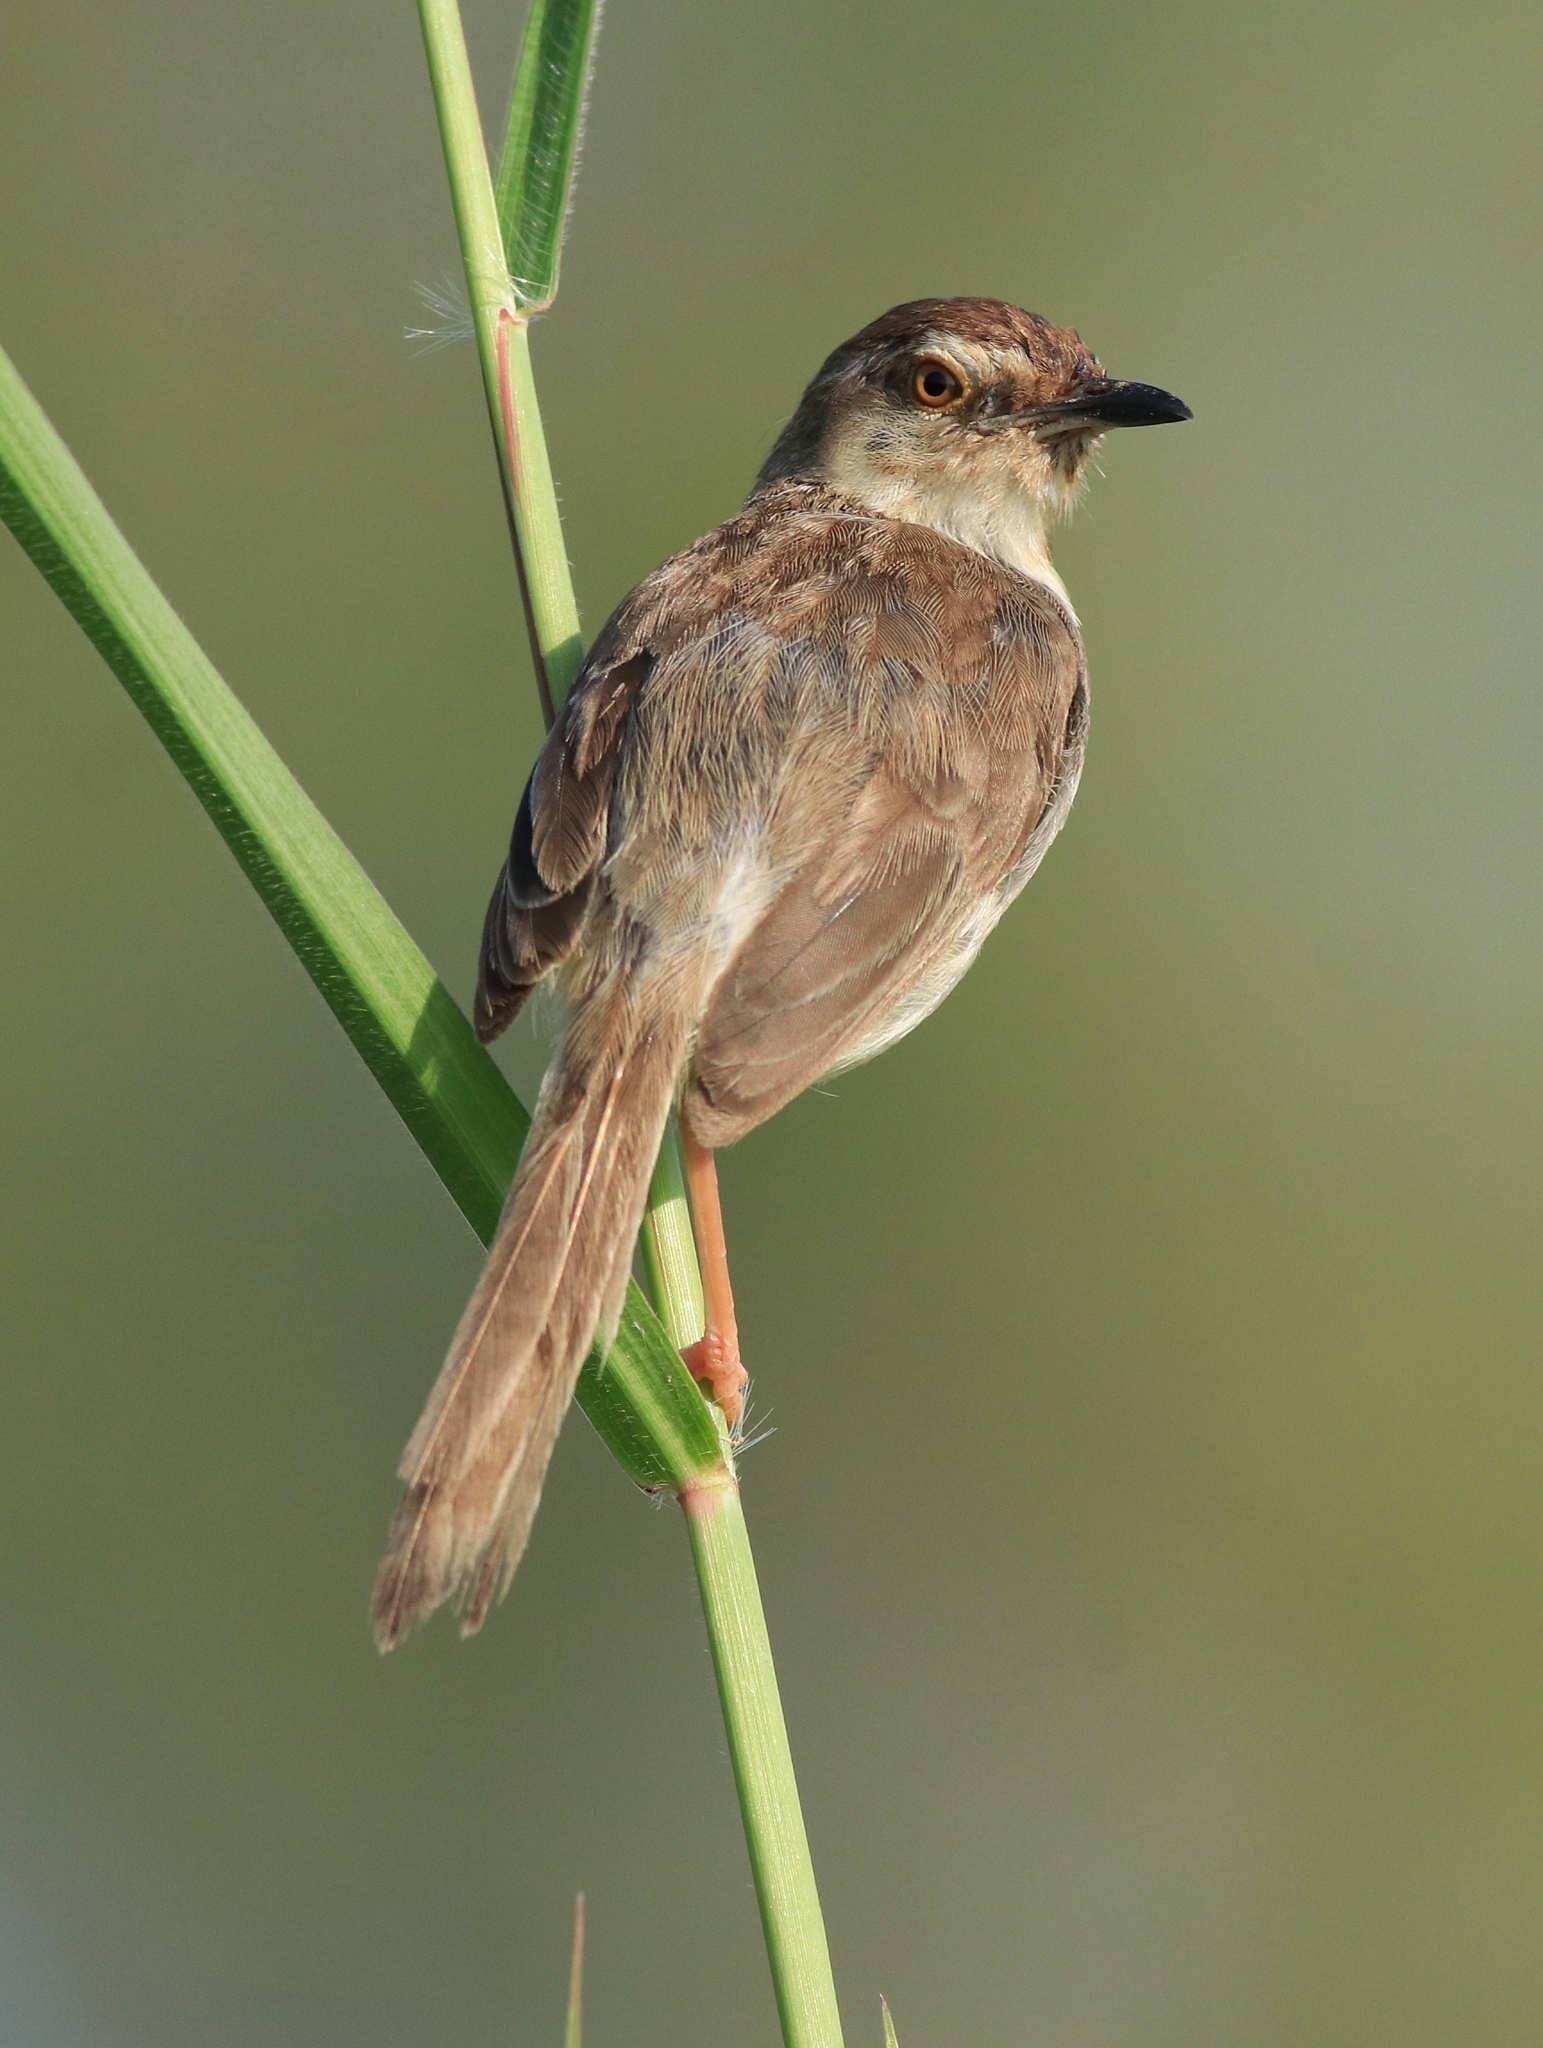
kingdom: Animalia
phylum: Chordata
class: Aves
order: Passeriformes
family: Cisticolidae
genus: Prinia
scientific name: Prinia inornata
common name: Plain prinia
